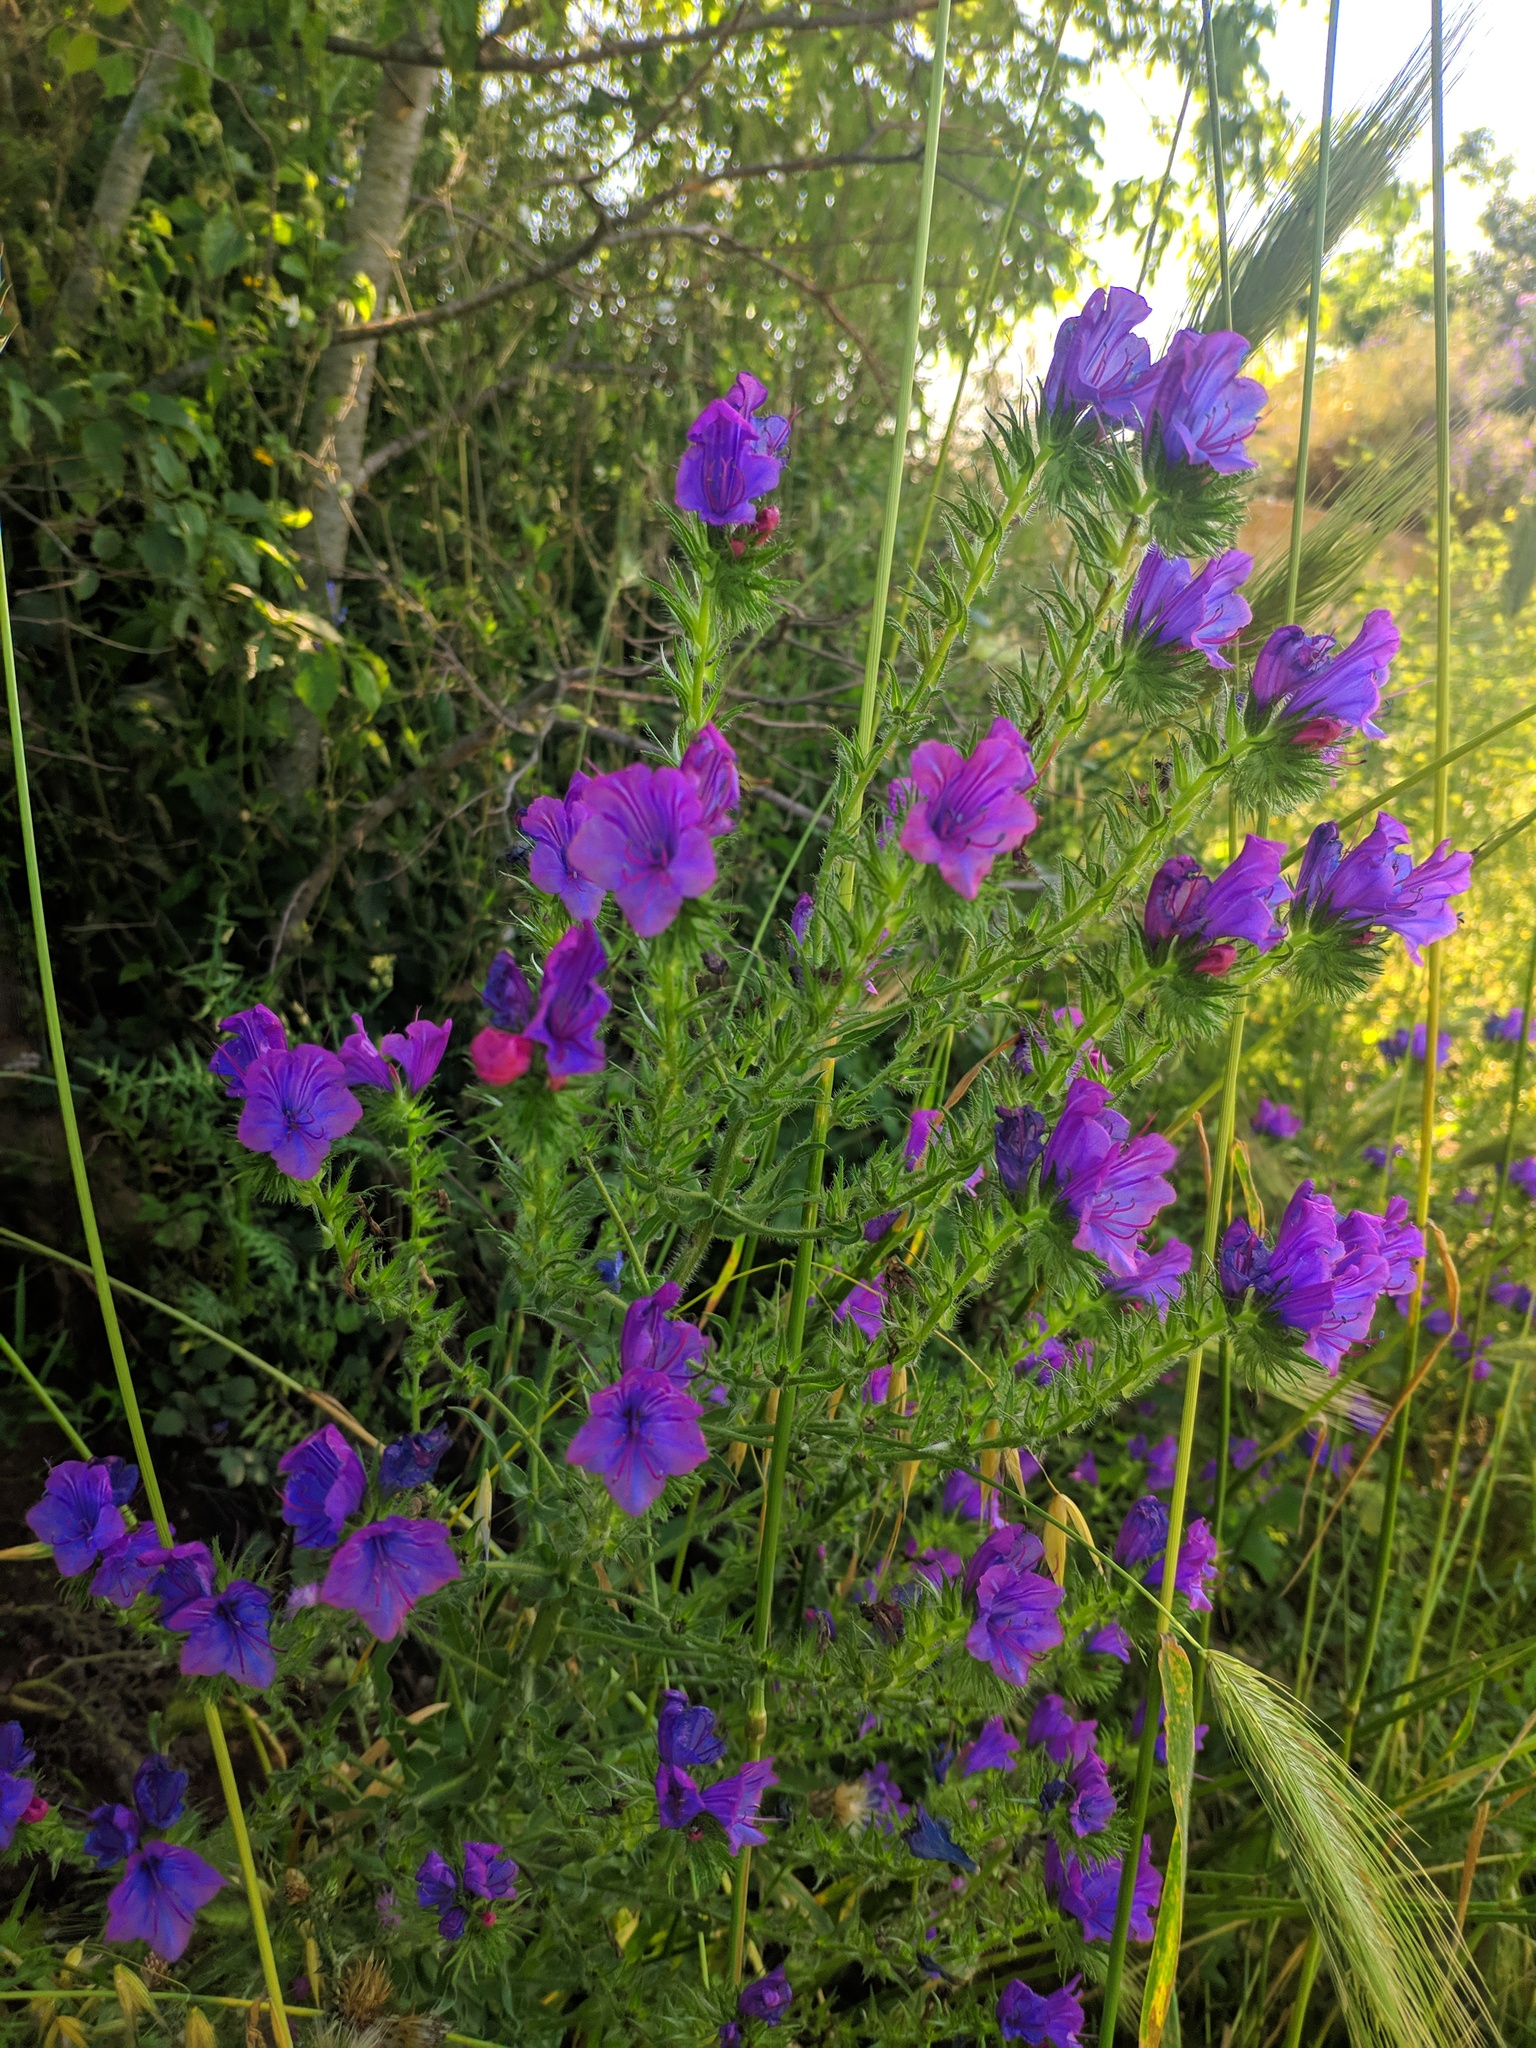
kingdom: Plantae
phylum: Tracheophyta
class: Magnoliopsida
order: Boraginales
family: Boraginaceae
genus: Echium
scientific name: Echium plantagineum
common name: Purple viper's-bugloss
